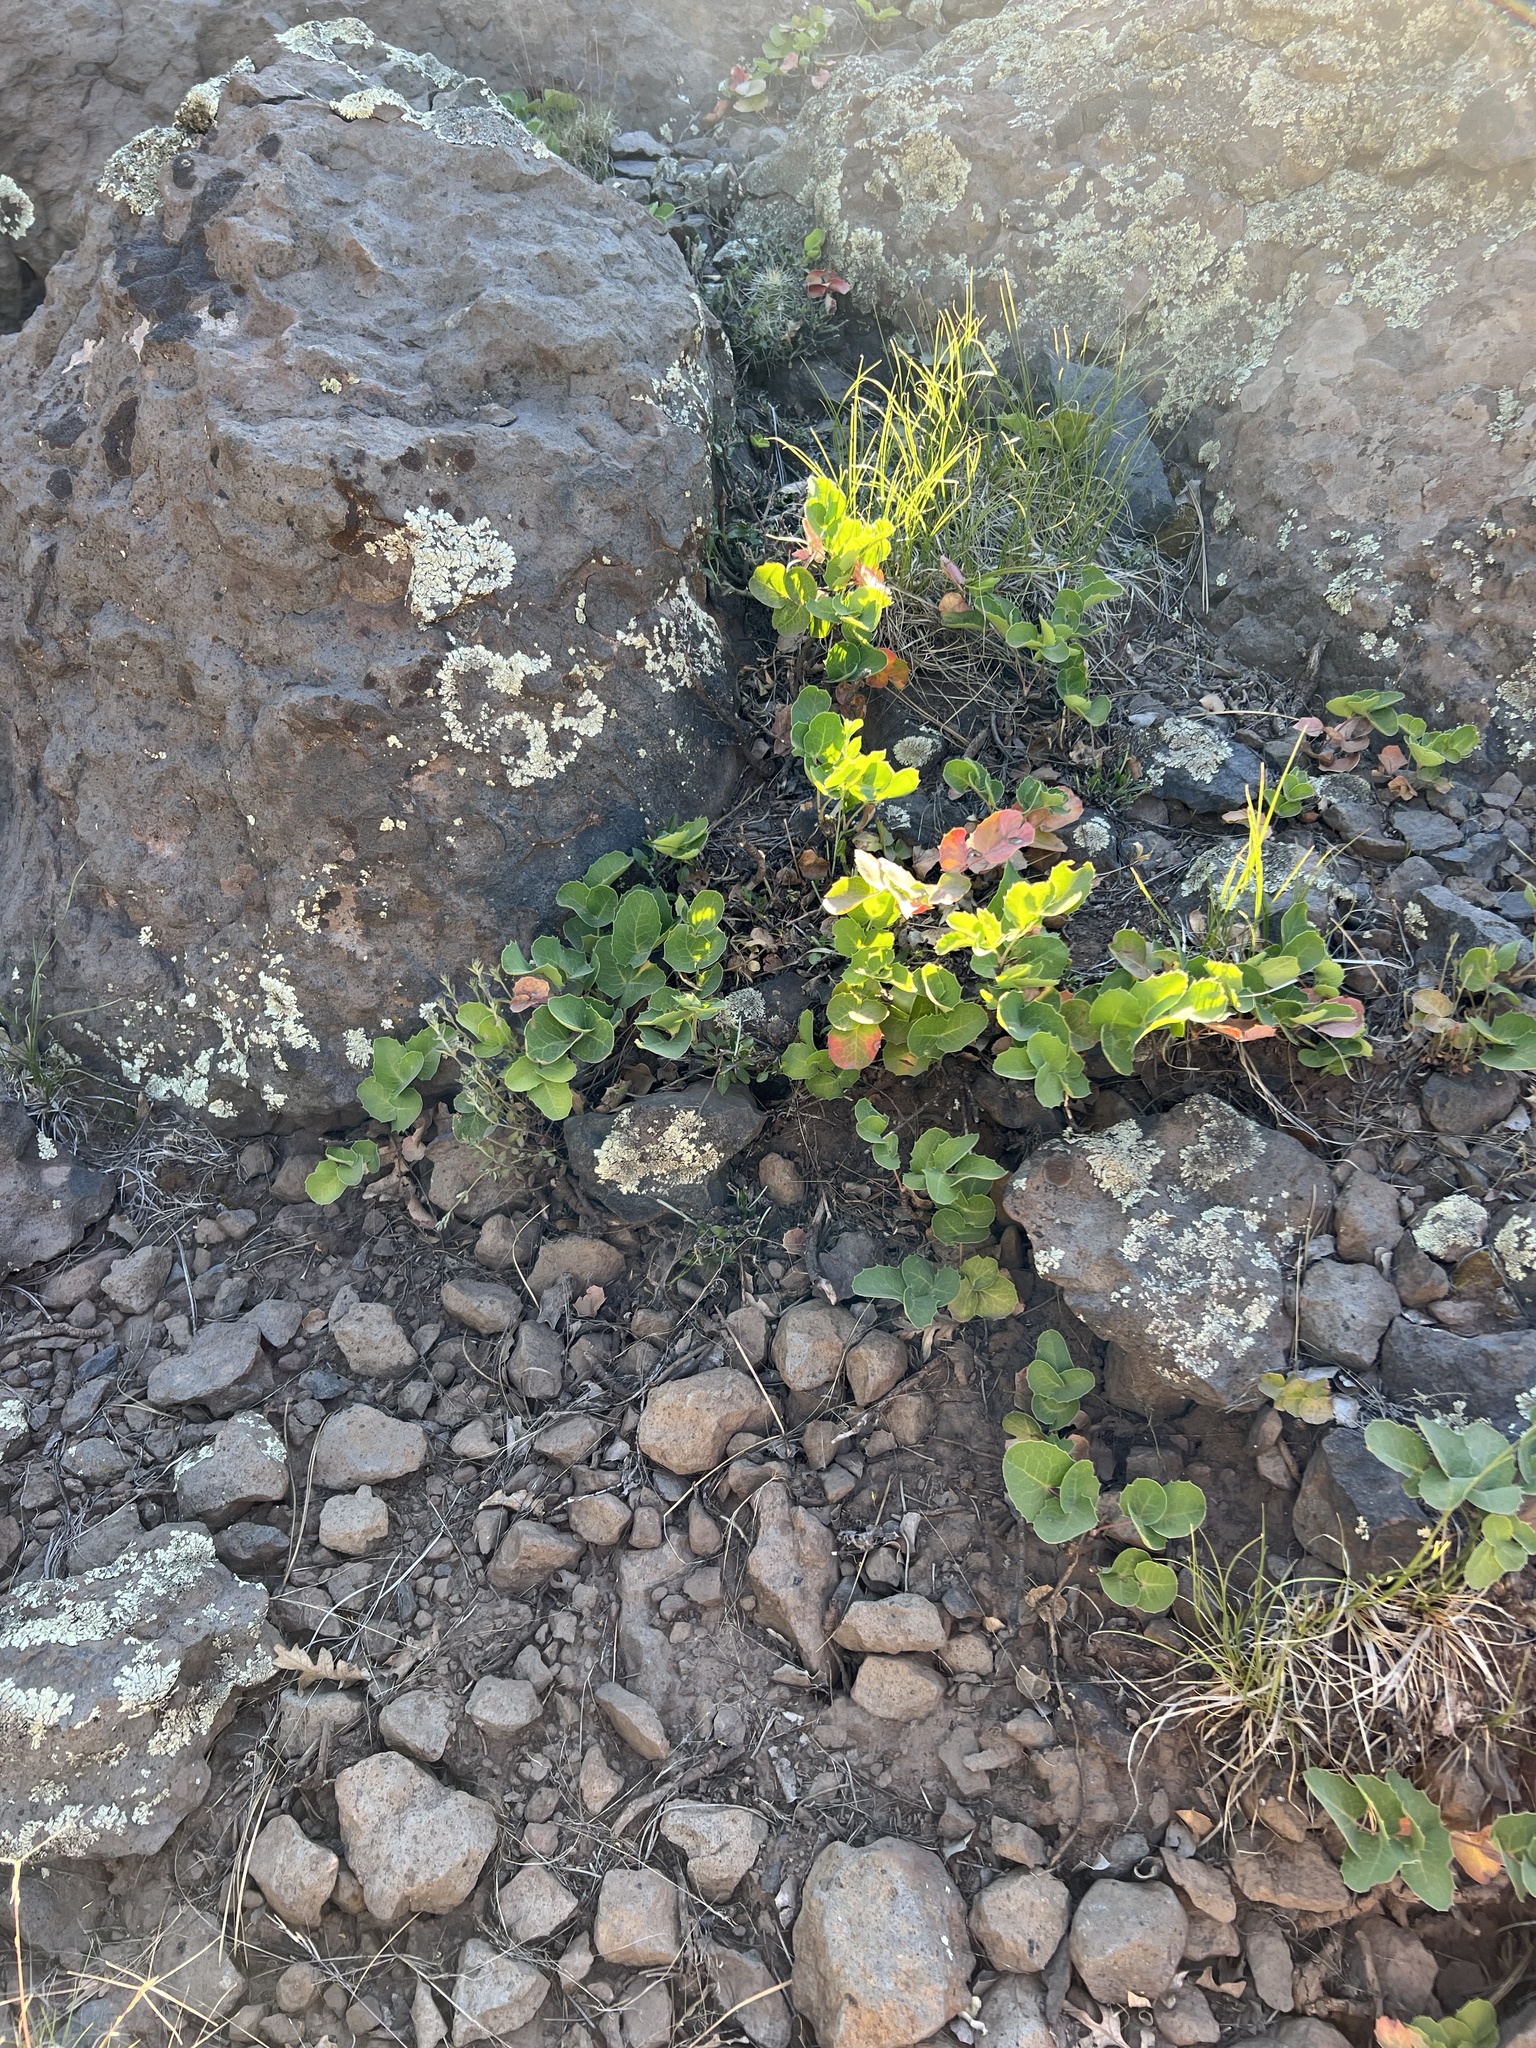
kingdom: Plantae
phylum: Tracheophyta
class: Magnoliopsida
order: Ranunculales
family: Berberidaceae
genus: Mahonia
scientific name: Mahonia repens
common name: Creeping oregon-grape
